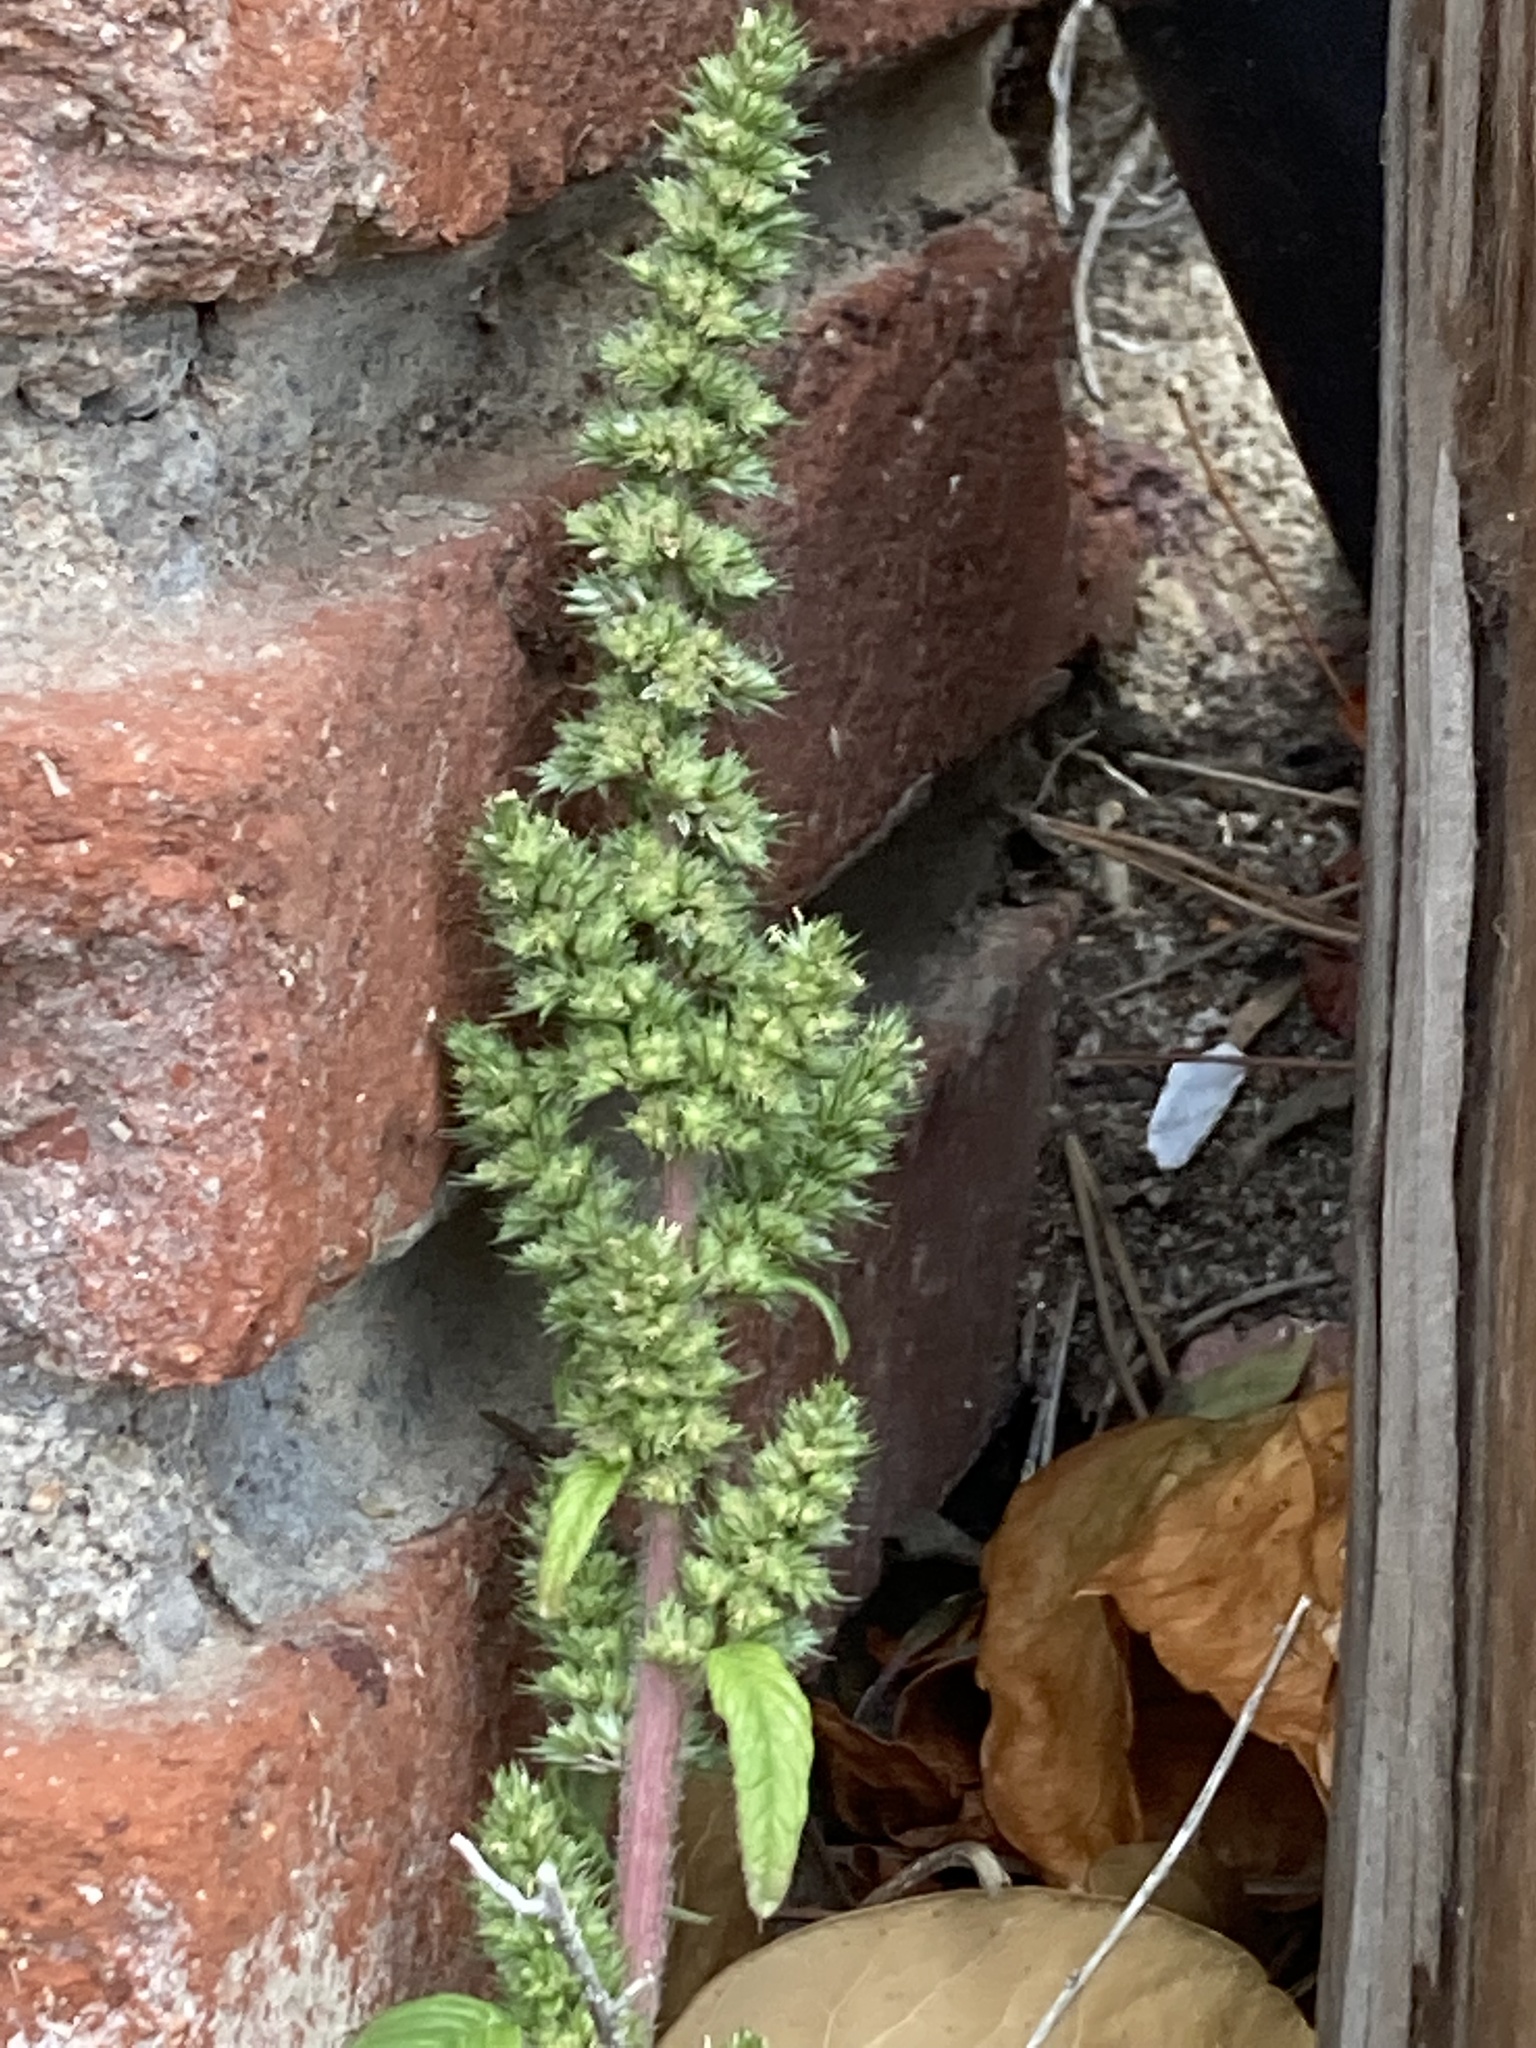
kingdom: Plantae
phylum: Tracheophyta
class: Magnoliopsida
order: Caryophyllales
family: Amaranthaceae
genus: Amaranthus
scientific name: Amaranthus retroflexus
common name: Redroot amaranth
